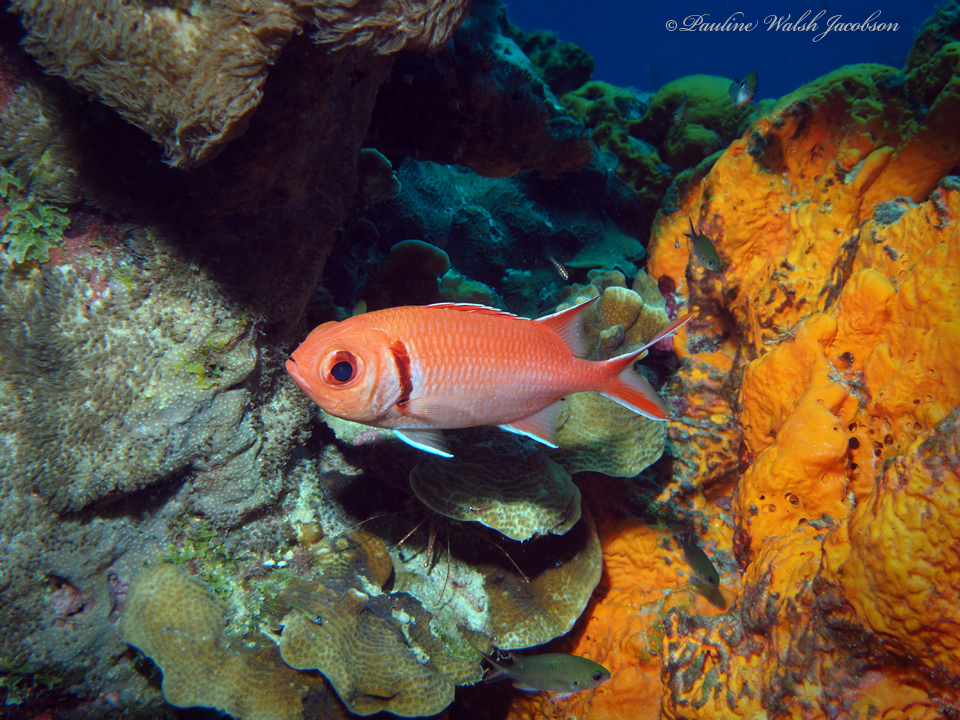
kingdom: Animalia
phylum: Chordata
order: Beryciformes
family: Holocentridae
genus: Myripristis
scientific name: Myripristis jacobus
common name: Blackbar soldierfish
